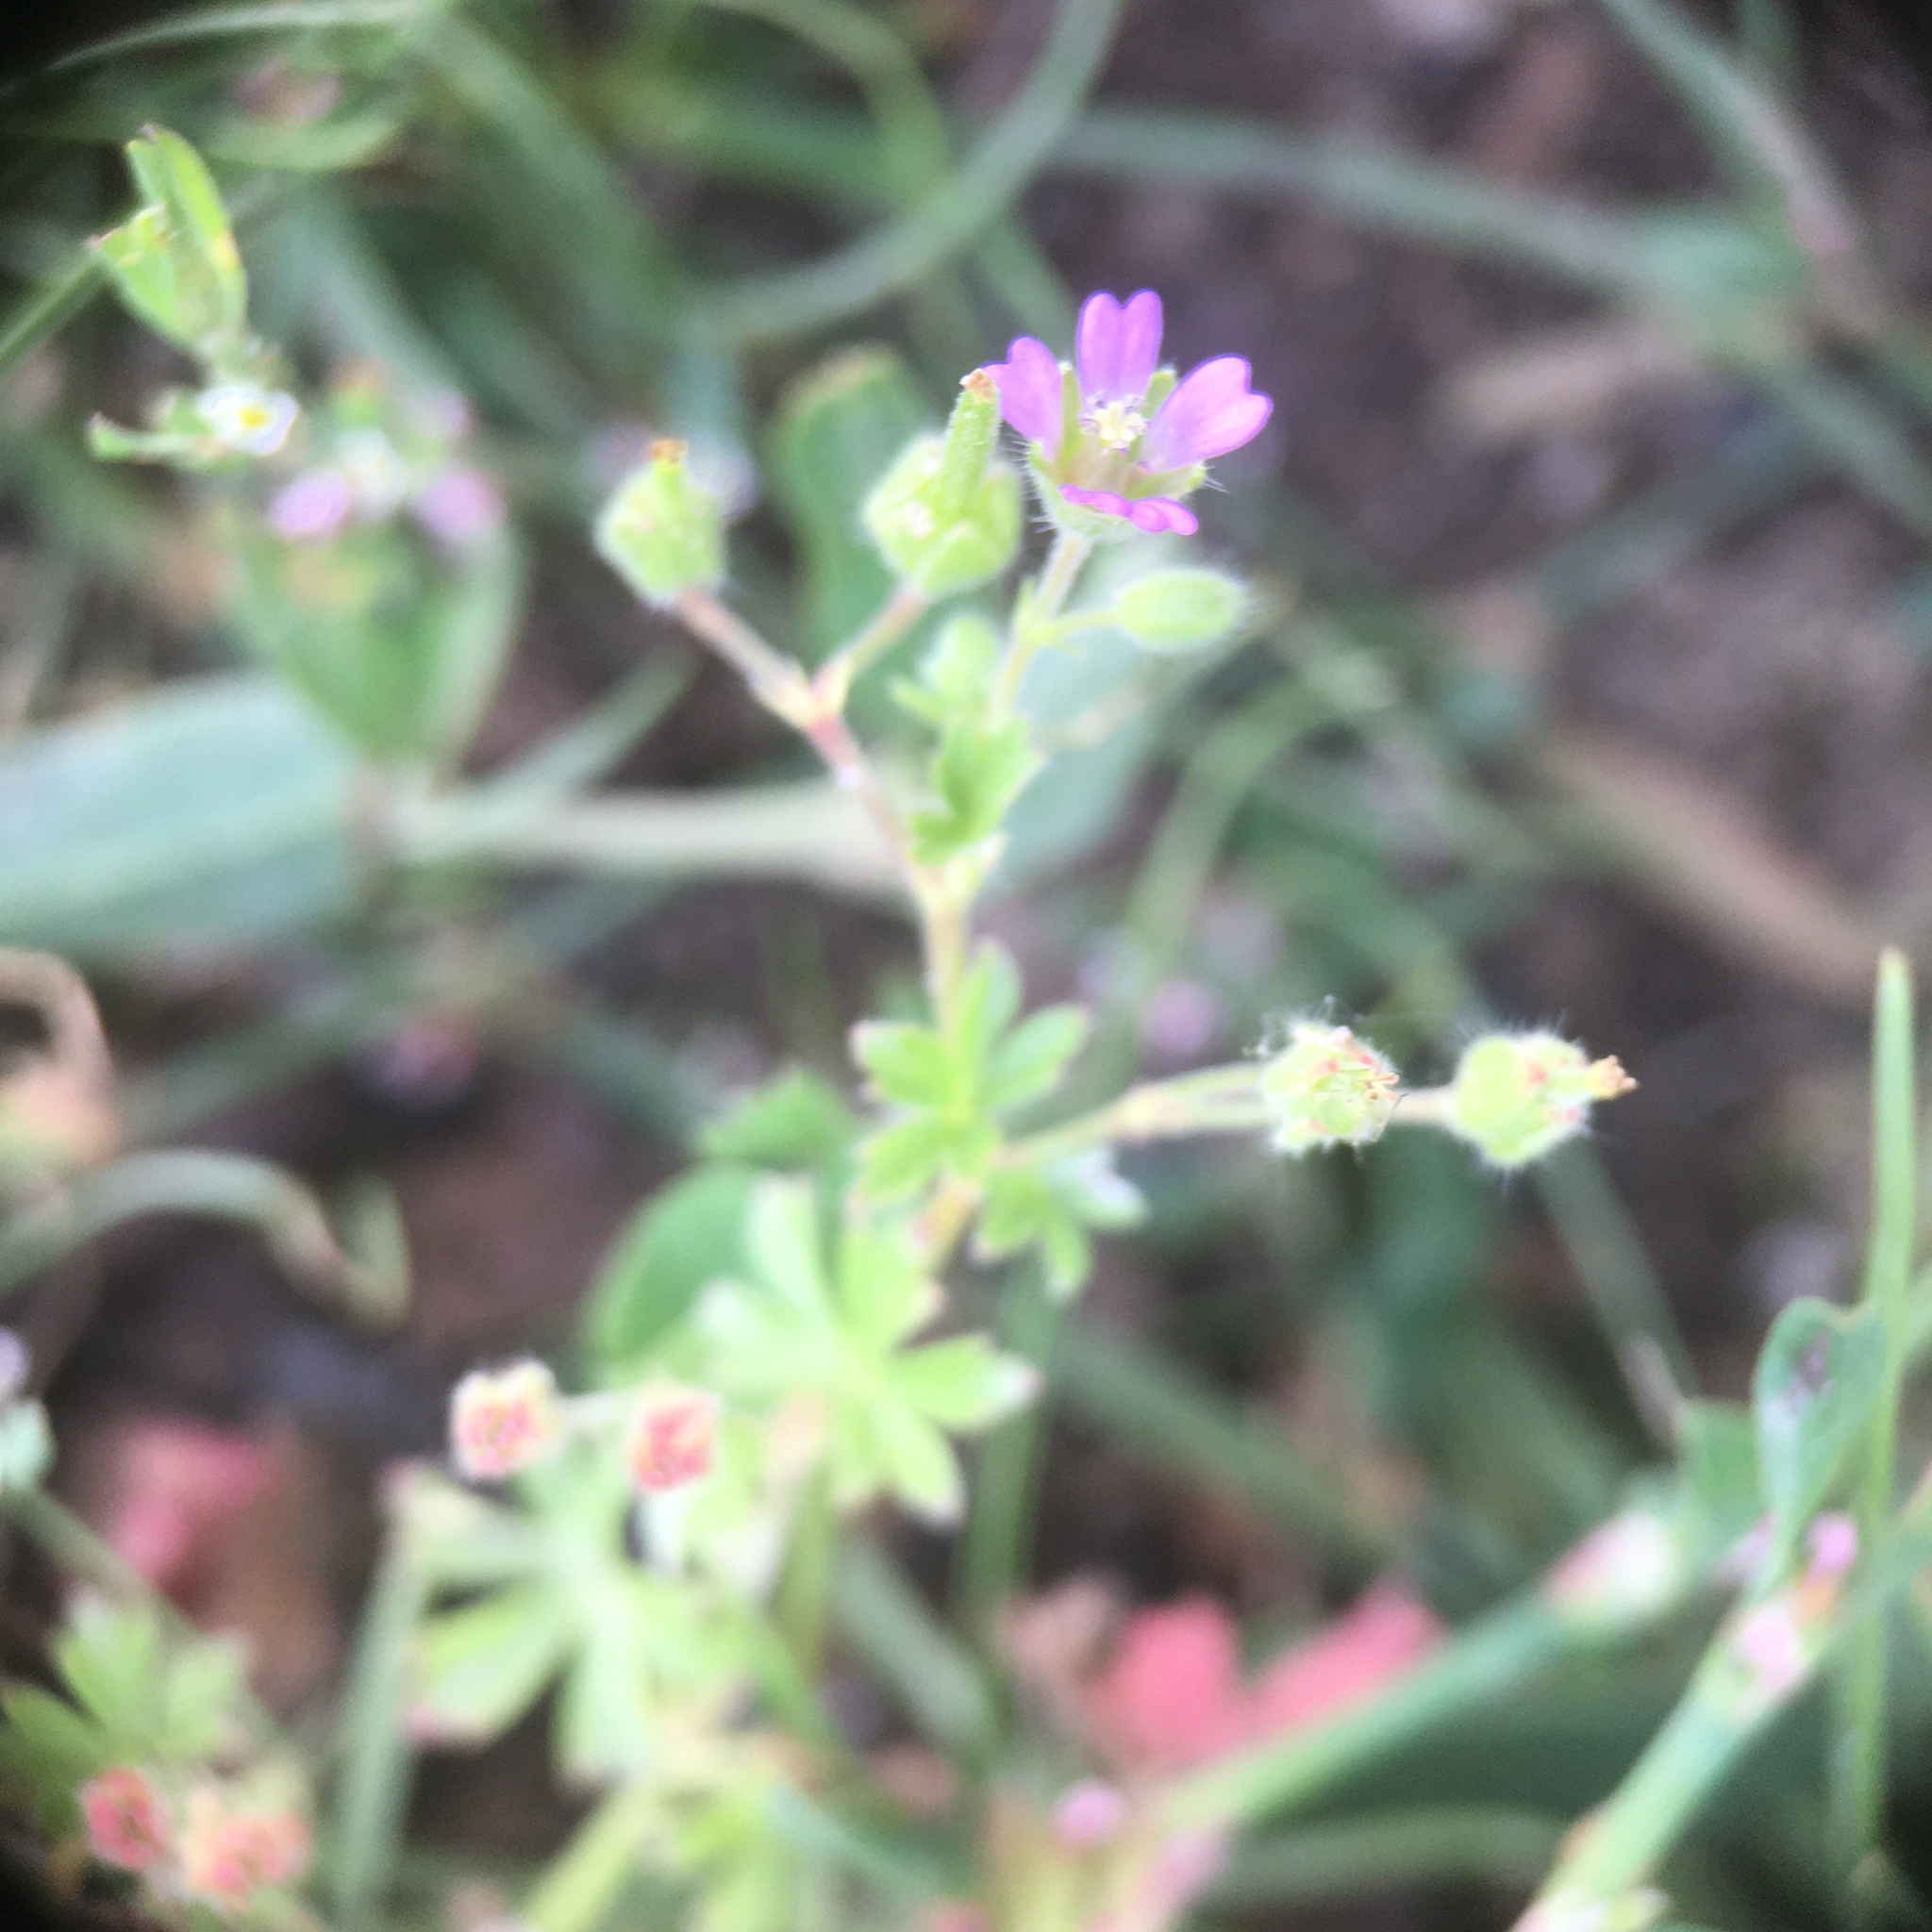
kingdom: Plantae
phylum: Tracheophyta
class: Magnoliopsida
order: Geraniales
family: Geraniaceae
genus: Geranium
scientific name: Geranium pusillum
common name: Small geranium
